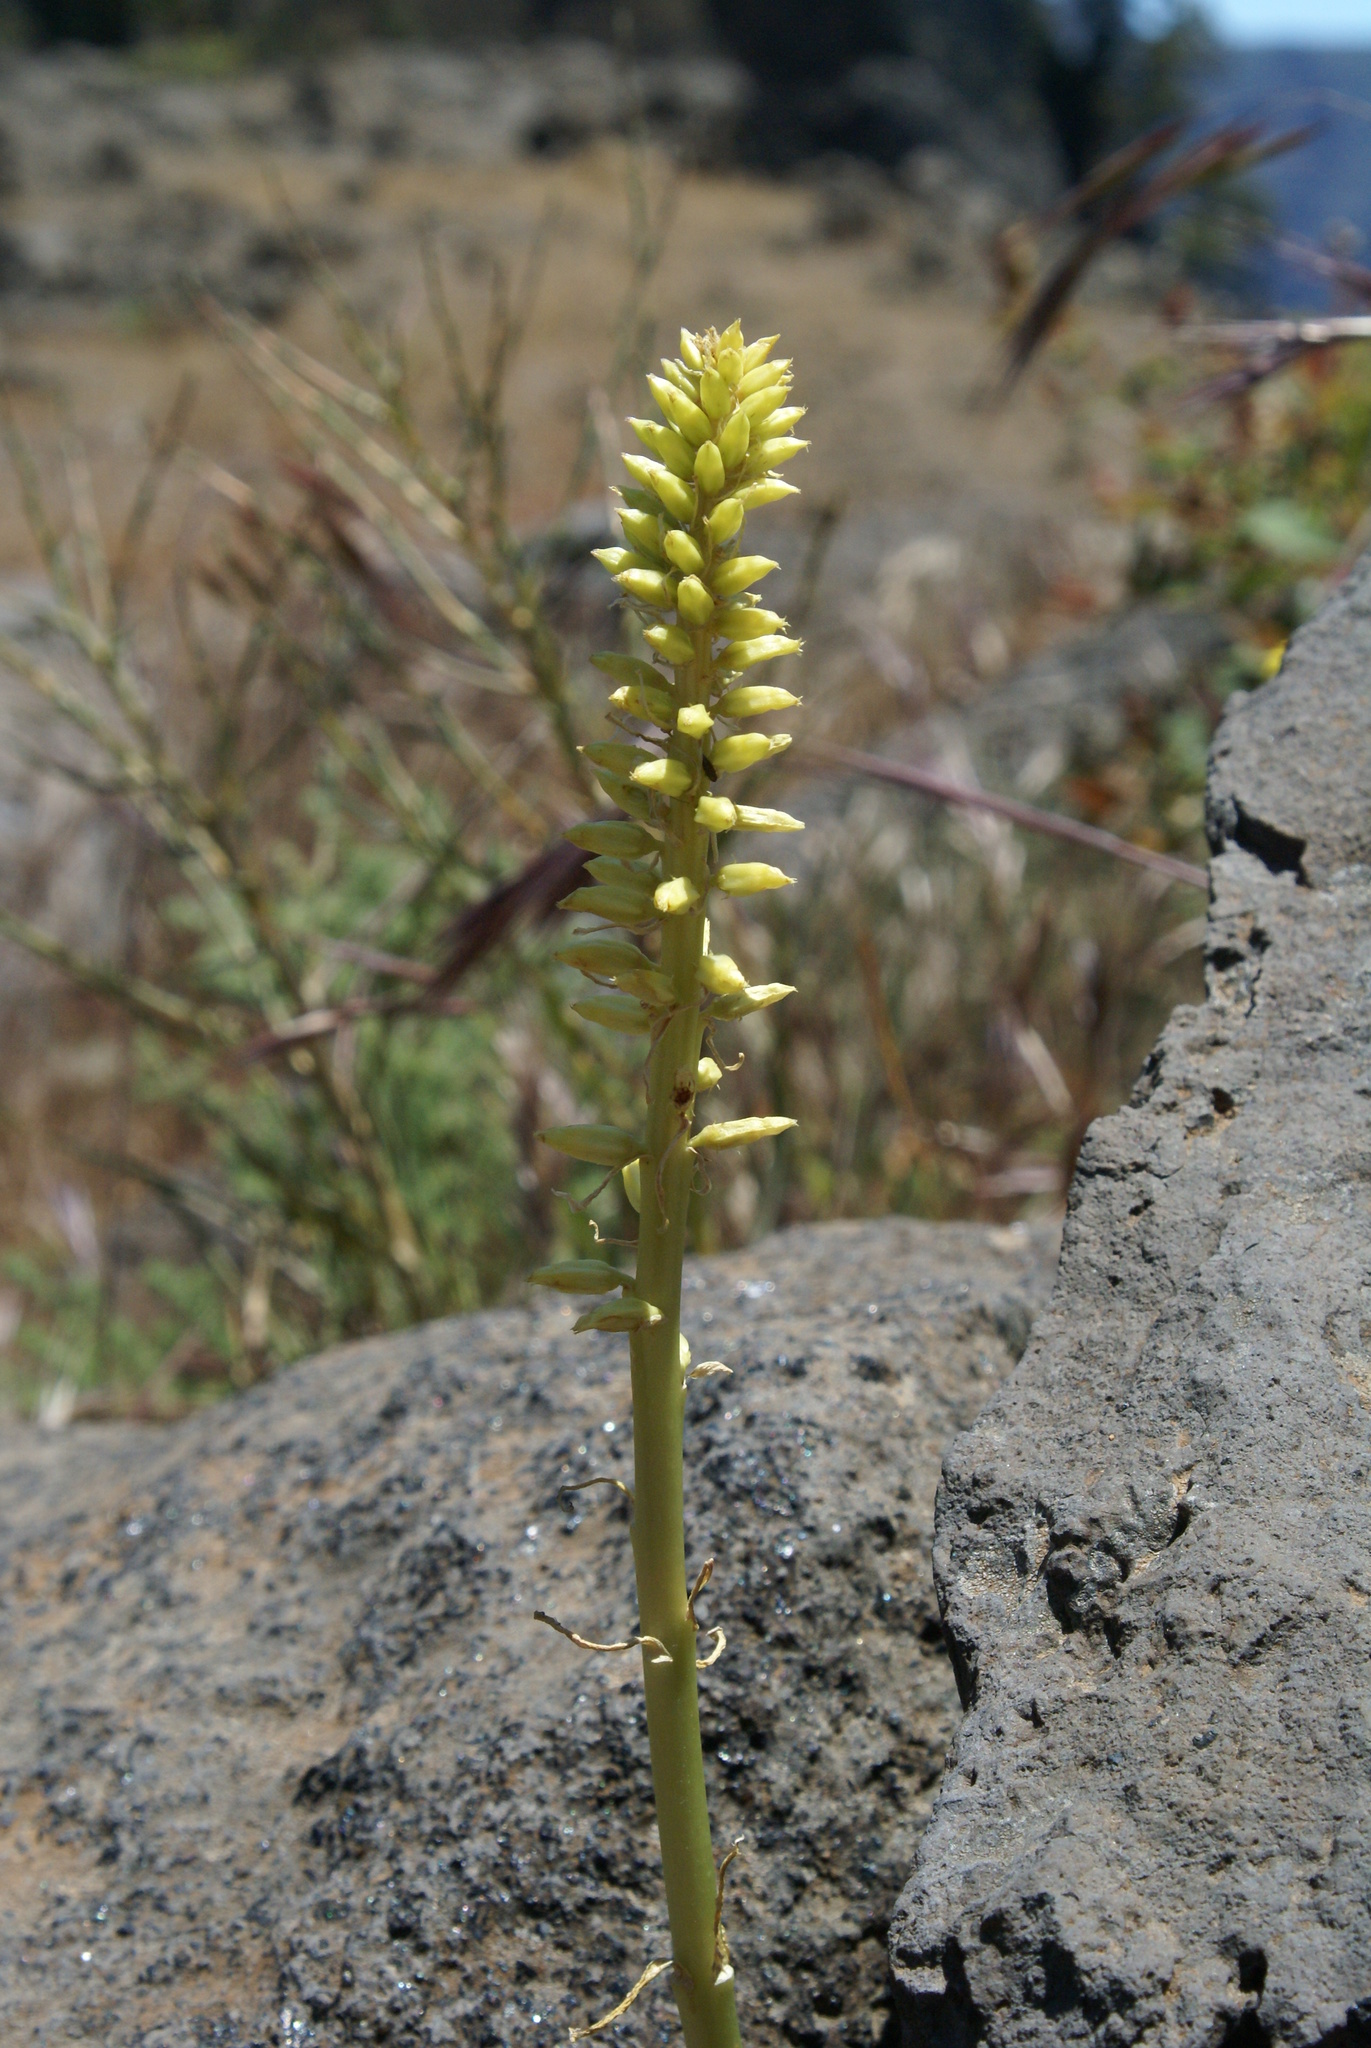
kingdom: Plantae
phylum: Tracheophyta
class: Magnoliopsida
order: Saxifragales
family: Crassulaceae
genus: Umbilicus
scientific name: Umbilicus horizontalis
